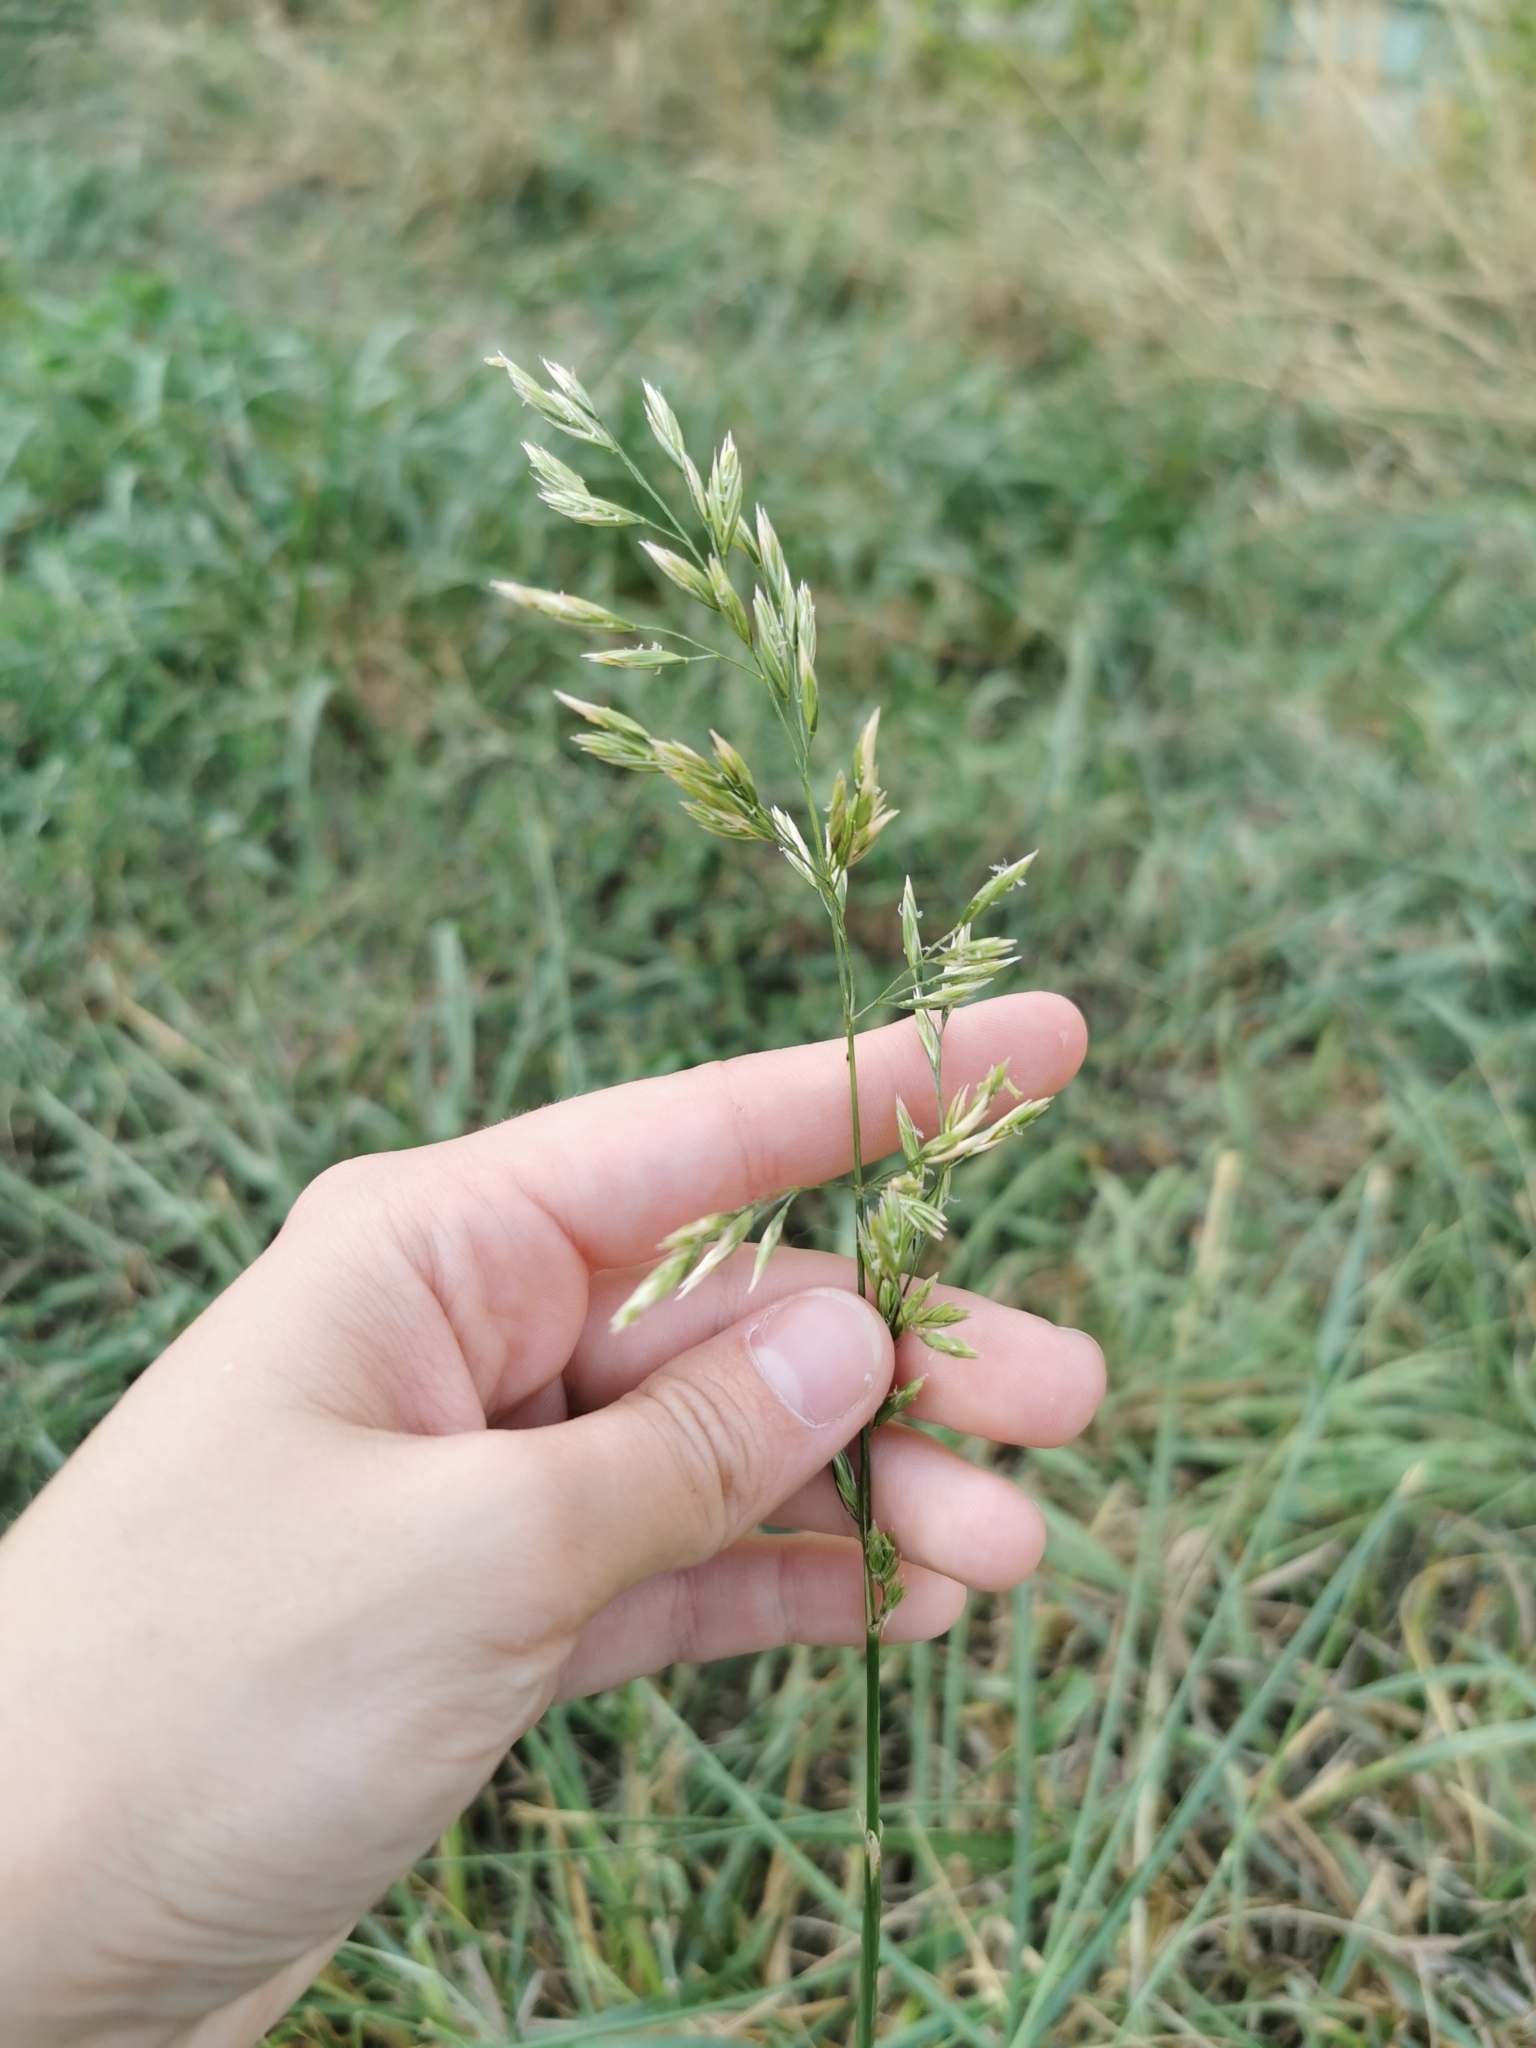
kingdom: Plantae
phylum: Tracheophyta
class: Liliopsida
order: Poales
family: Poaceae
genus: Lolium
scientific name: Lolium arundinaceum
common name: Reed fescue
